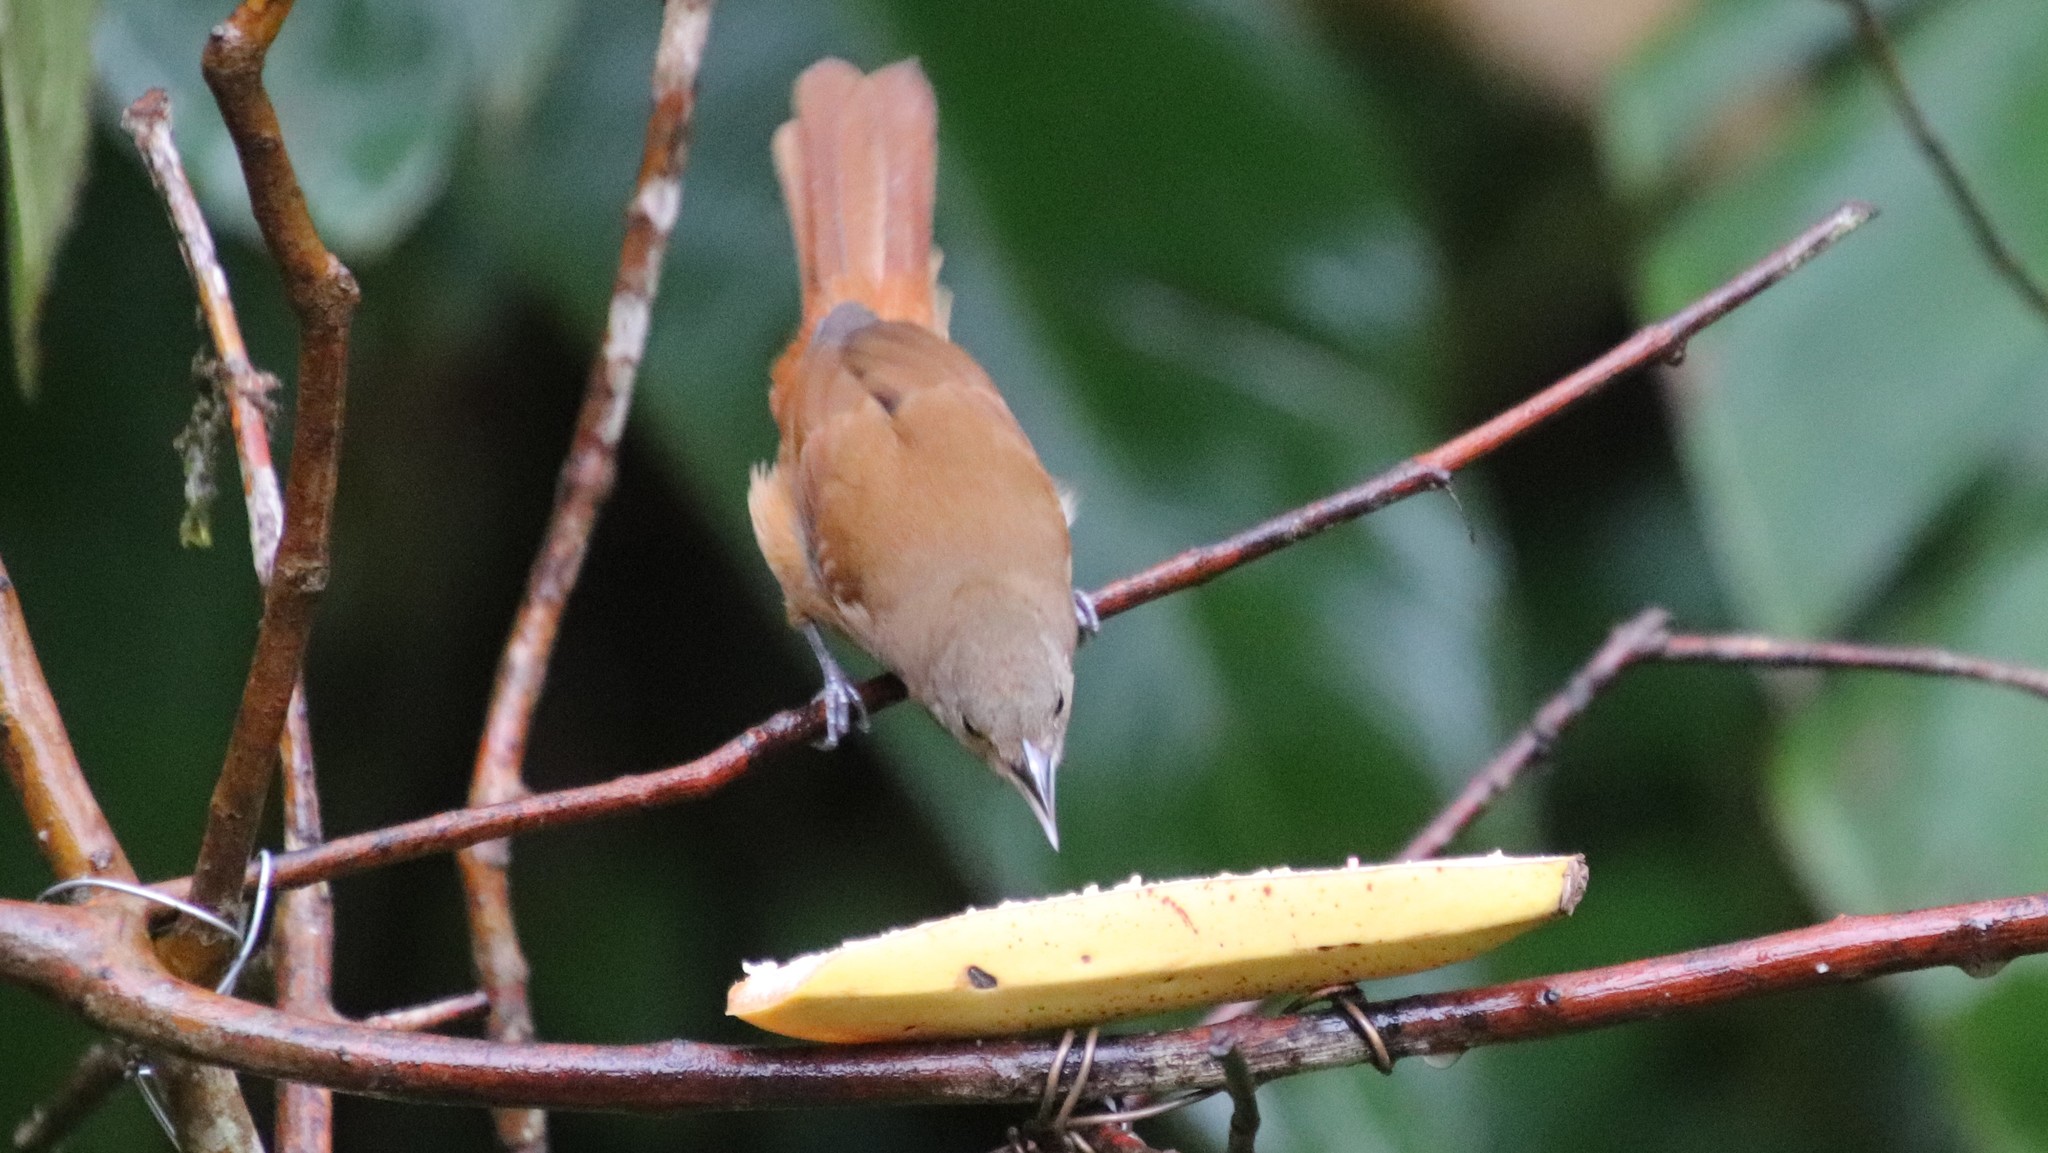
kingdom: Animalia
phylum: Chordata
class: Aves
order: Passeriformes
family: Thraupidae
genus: Tachyphonus
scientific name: Tachyphonus coronatus
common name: Ruby-crowned tanager
